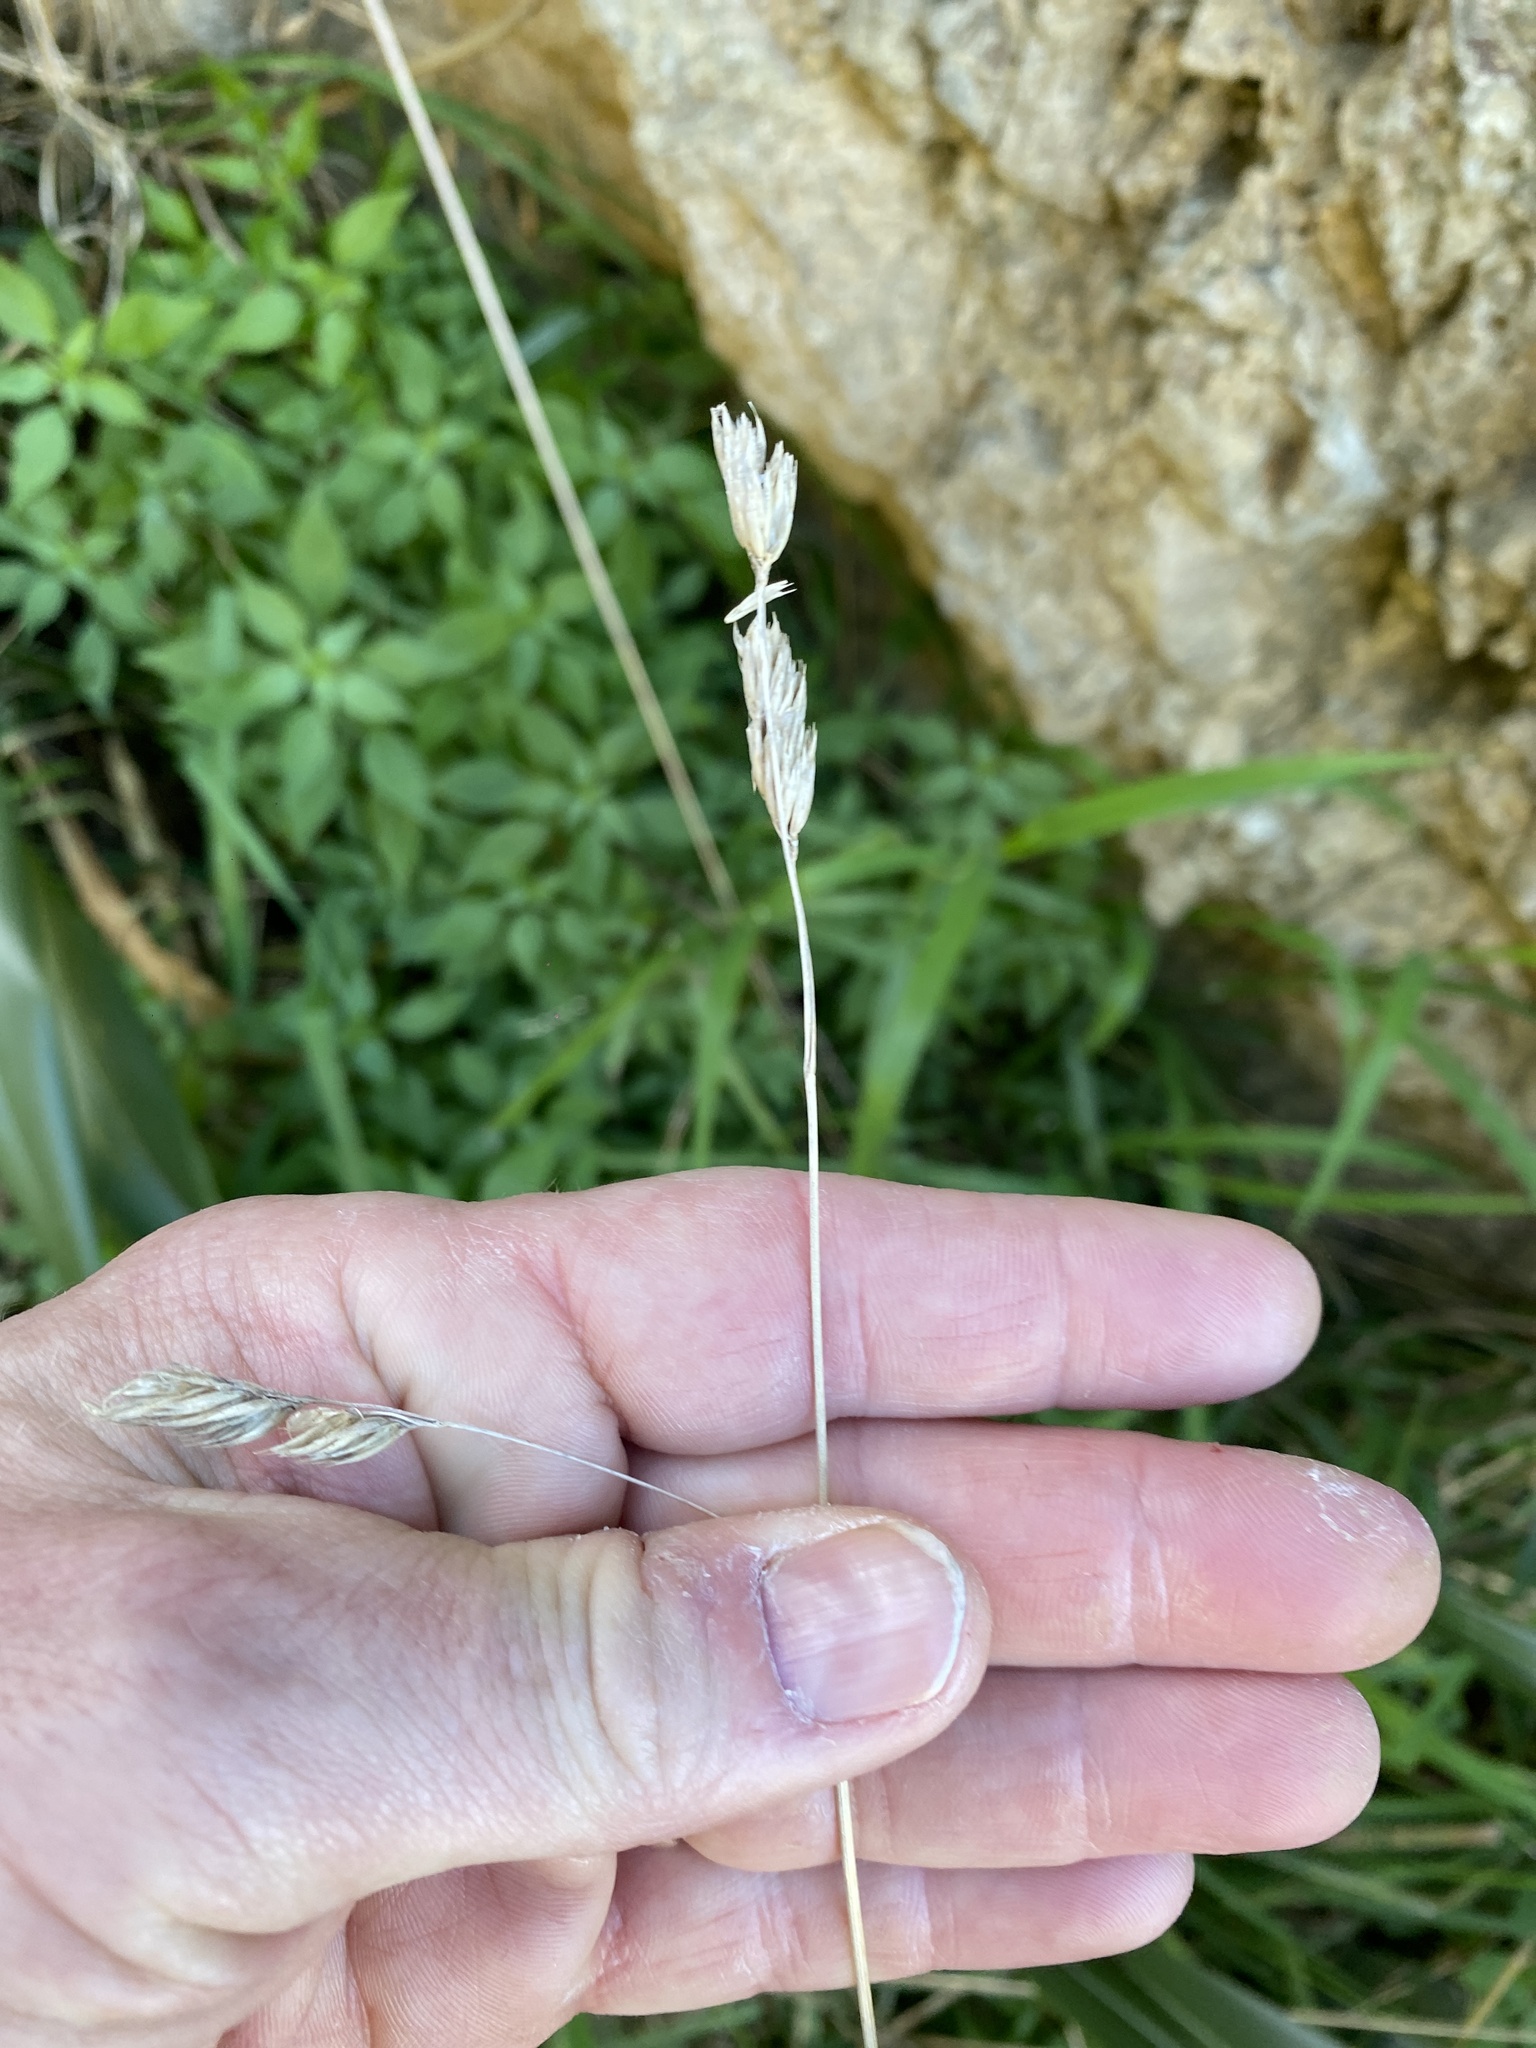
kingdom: Plantae
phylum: Tracheophyta
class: Liliopsida
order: Poales
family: Poaceae
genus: Dactylis
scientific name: Dactylis glomerata
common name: Orchardgrass
